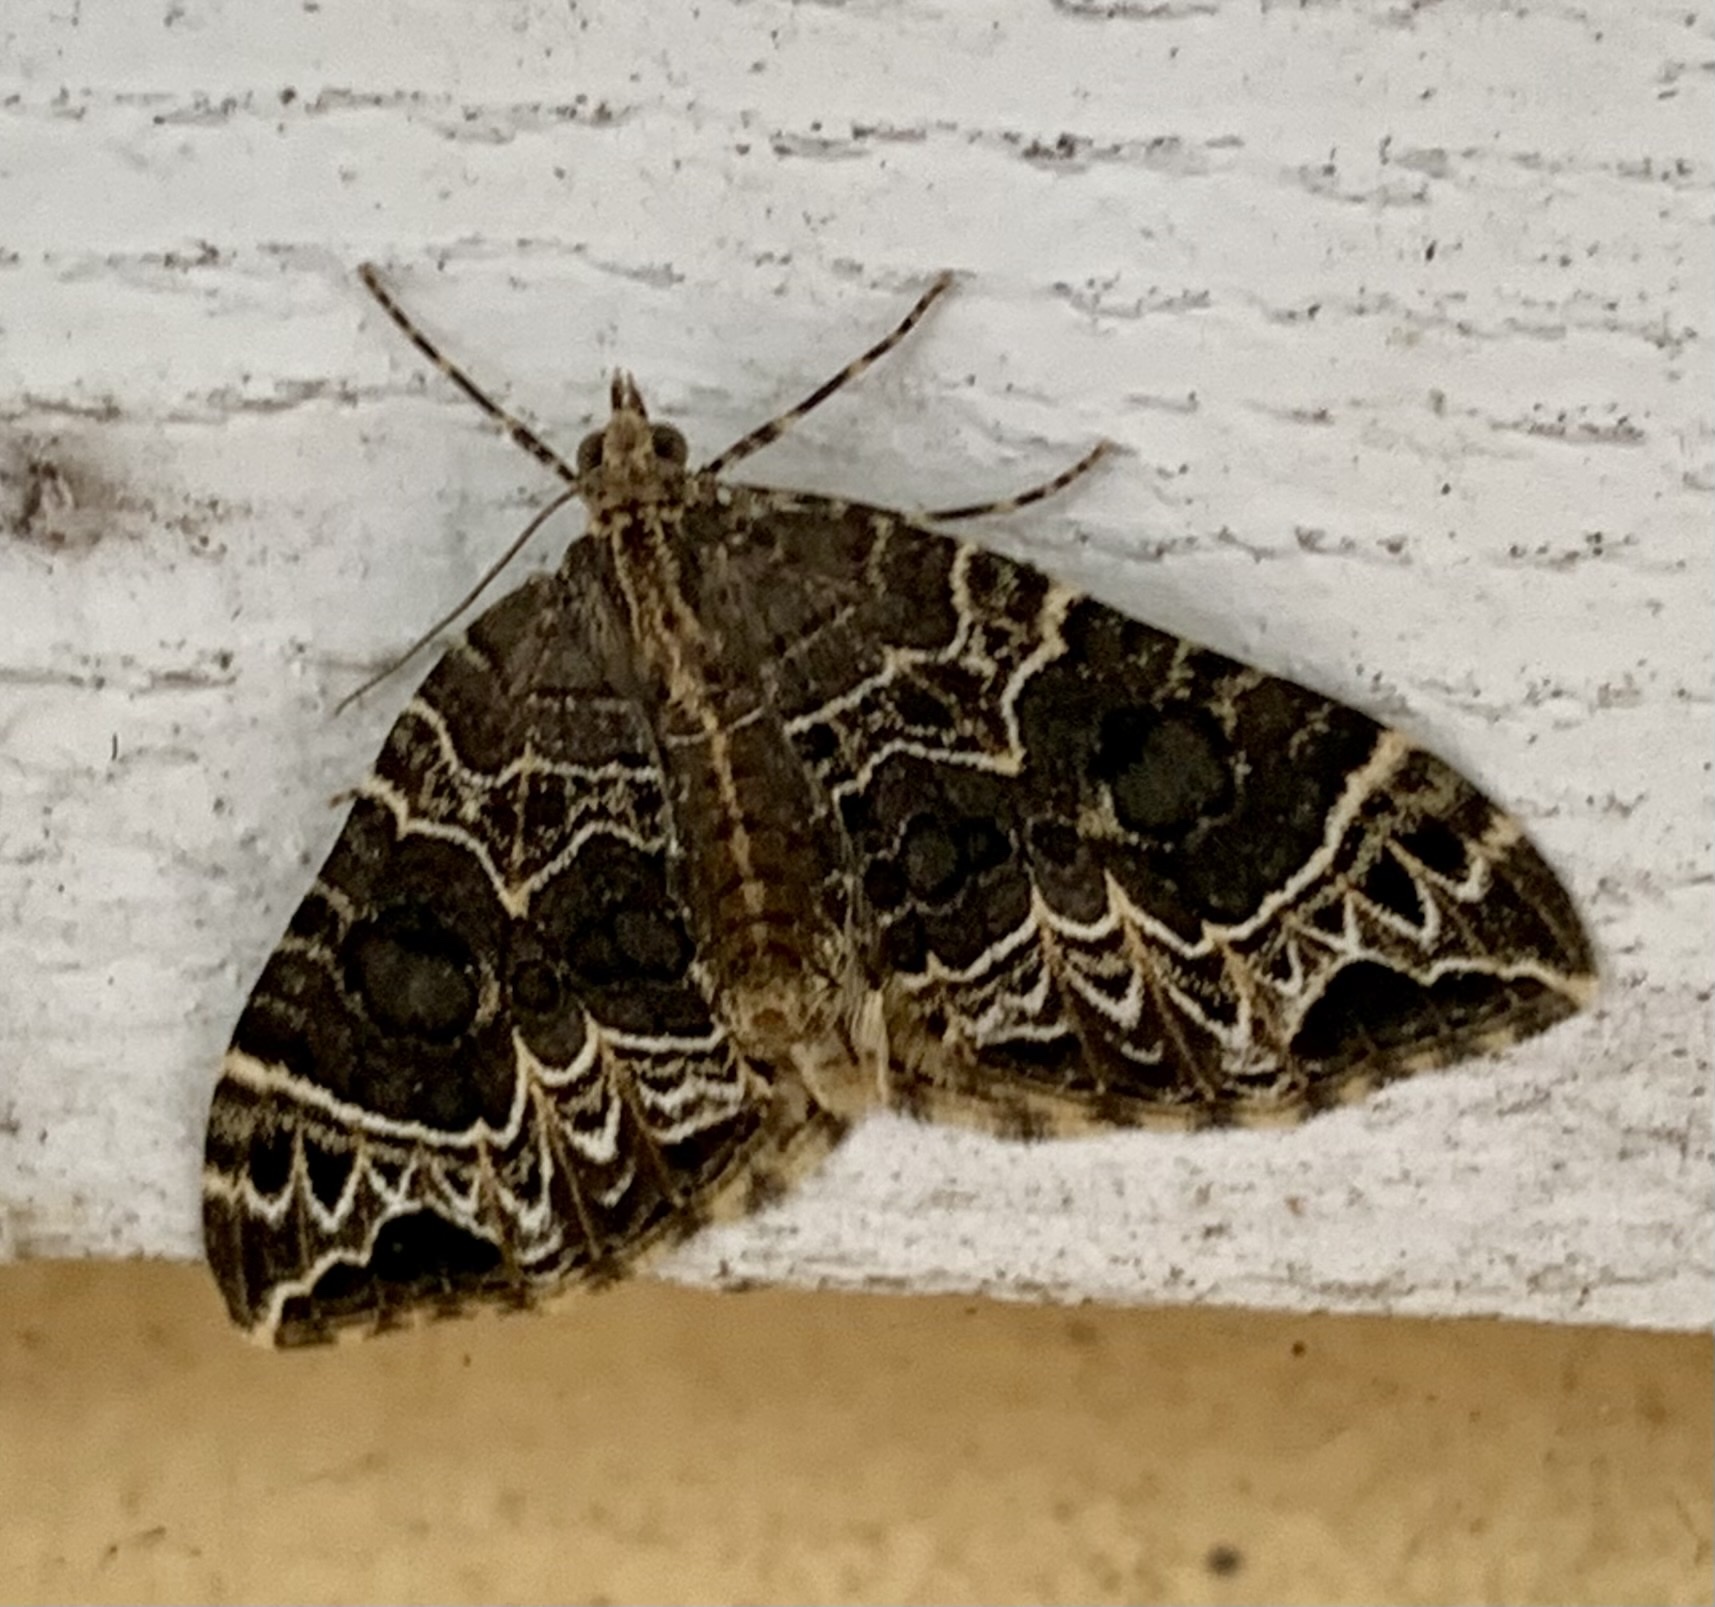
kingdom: Animalia
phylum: Arthropoda
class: Insecta
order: Lepidoptera
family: Geometridae
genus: Ecliptopera
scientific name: Ecliptopera silaceata
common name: Small phoenix
